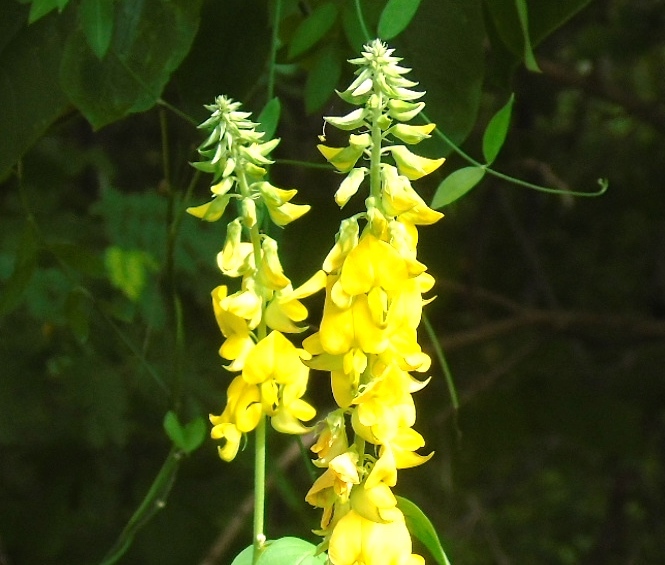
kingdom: Plantae
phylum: Tracheophyta
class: Magnoliopsida
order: Fabales
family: Fabaceae
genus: Crotalaria
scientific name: Crotalaria incana
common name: Shakeshake
